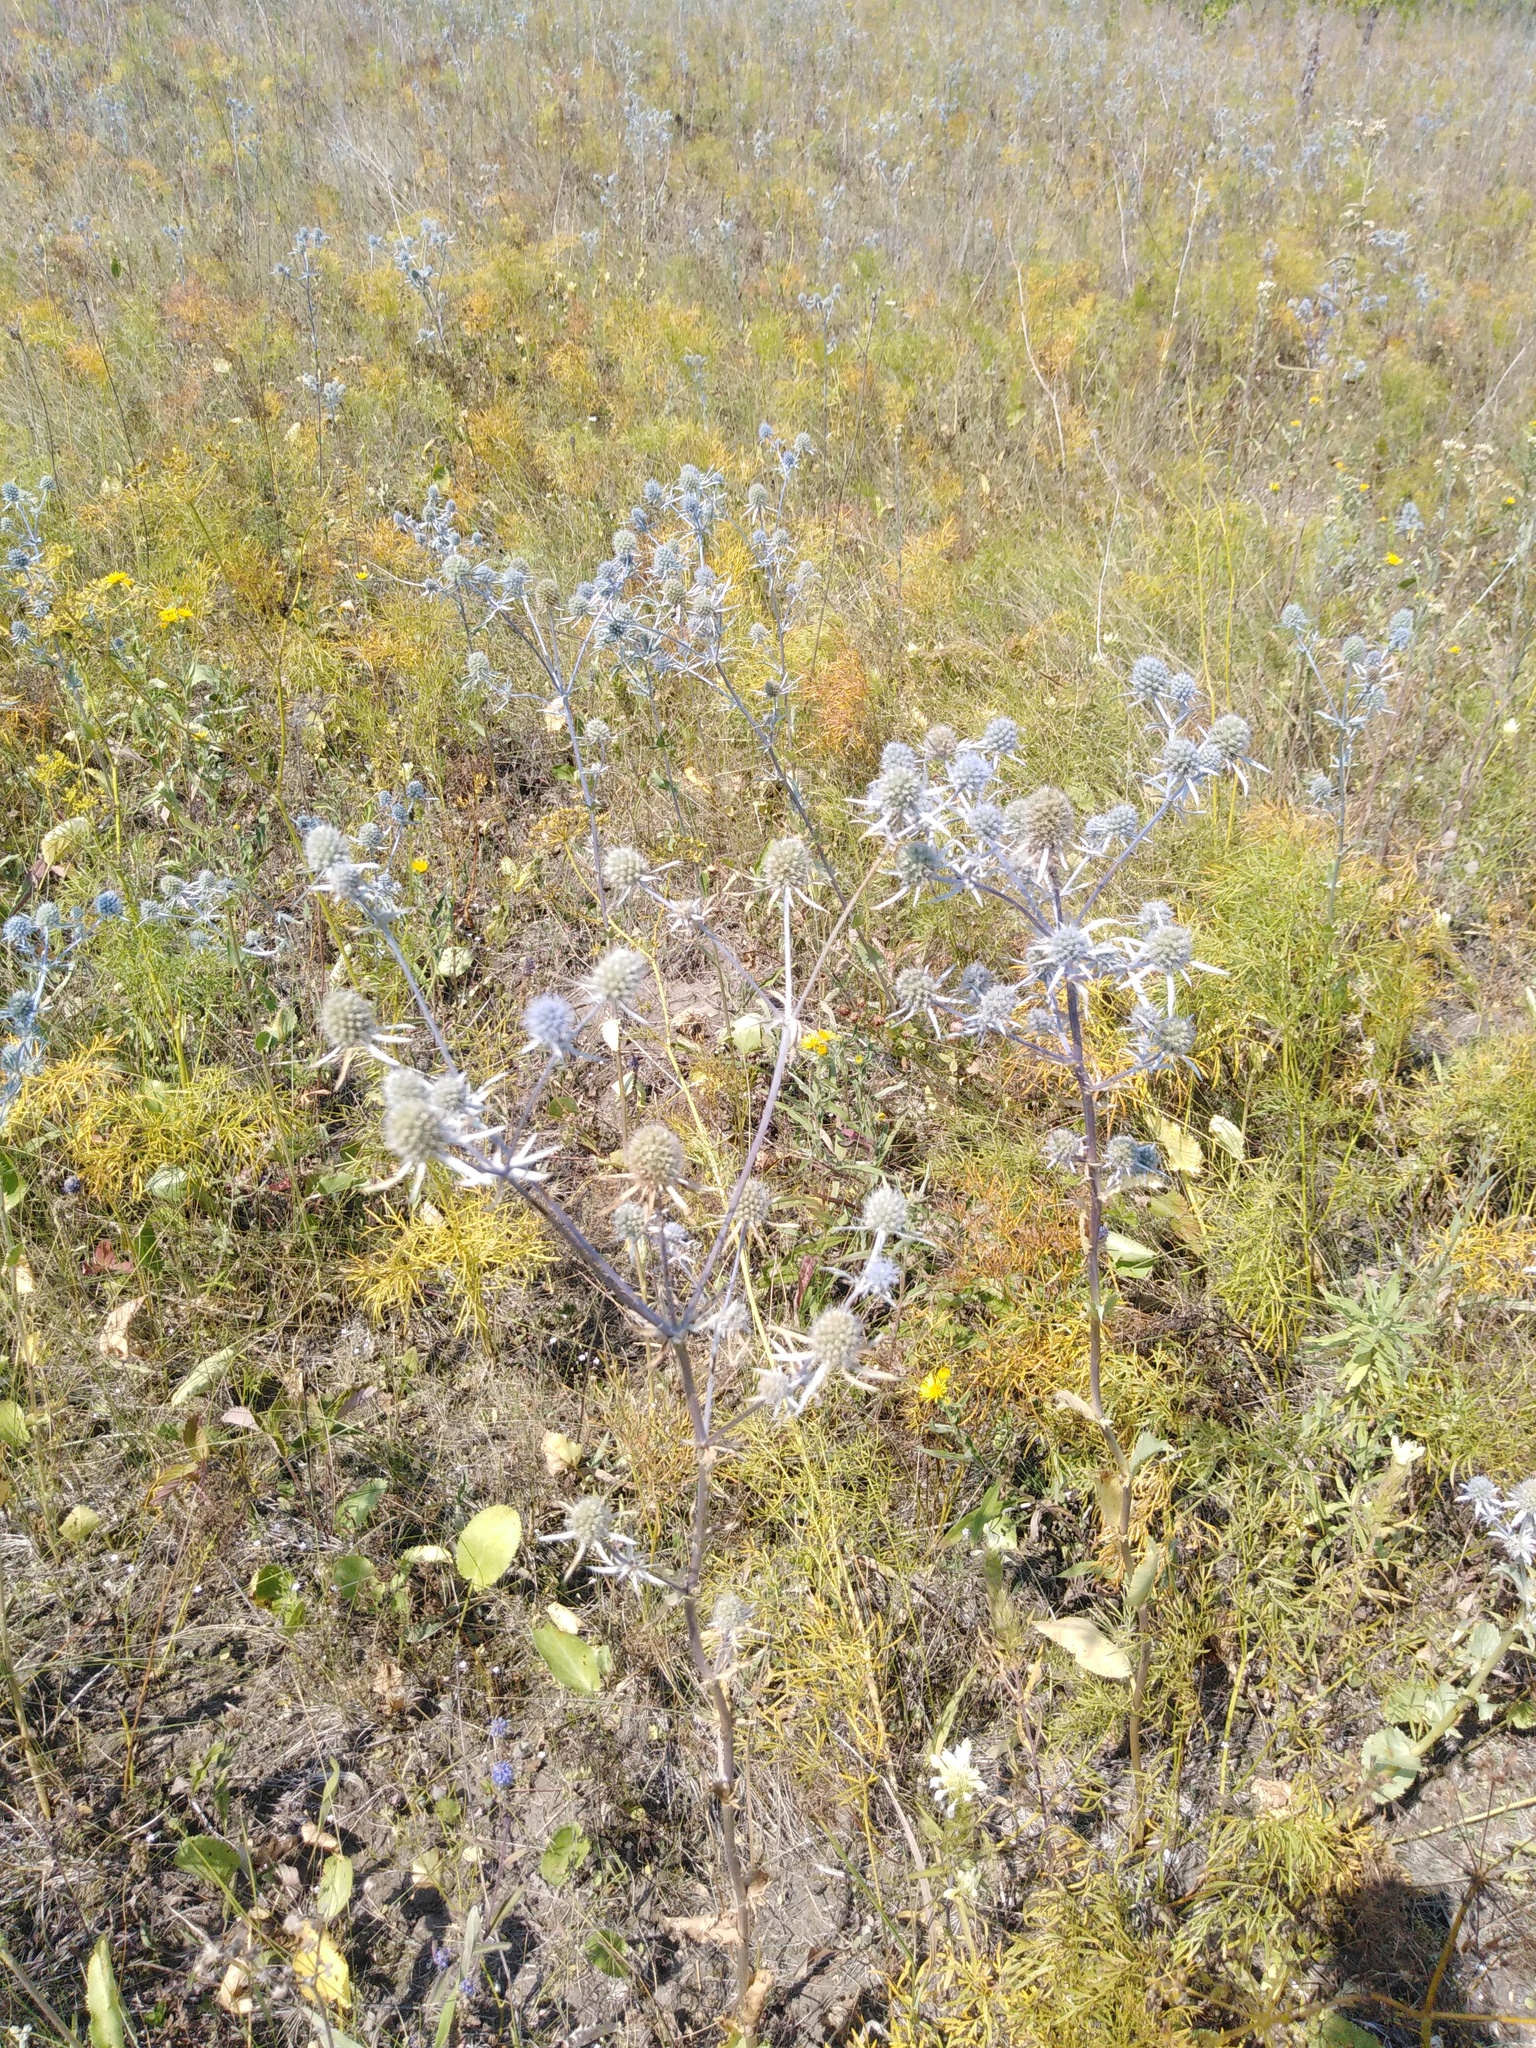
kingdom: Plantae
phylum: Tracheophyta
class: Magnoliopsida
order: Apiales
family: Apiaceae
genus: Eryngium
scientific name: Eryngium planum
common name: Blue eryngo
